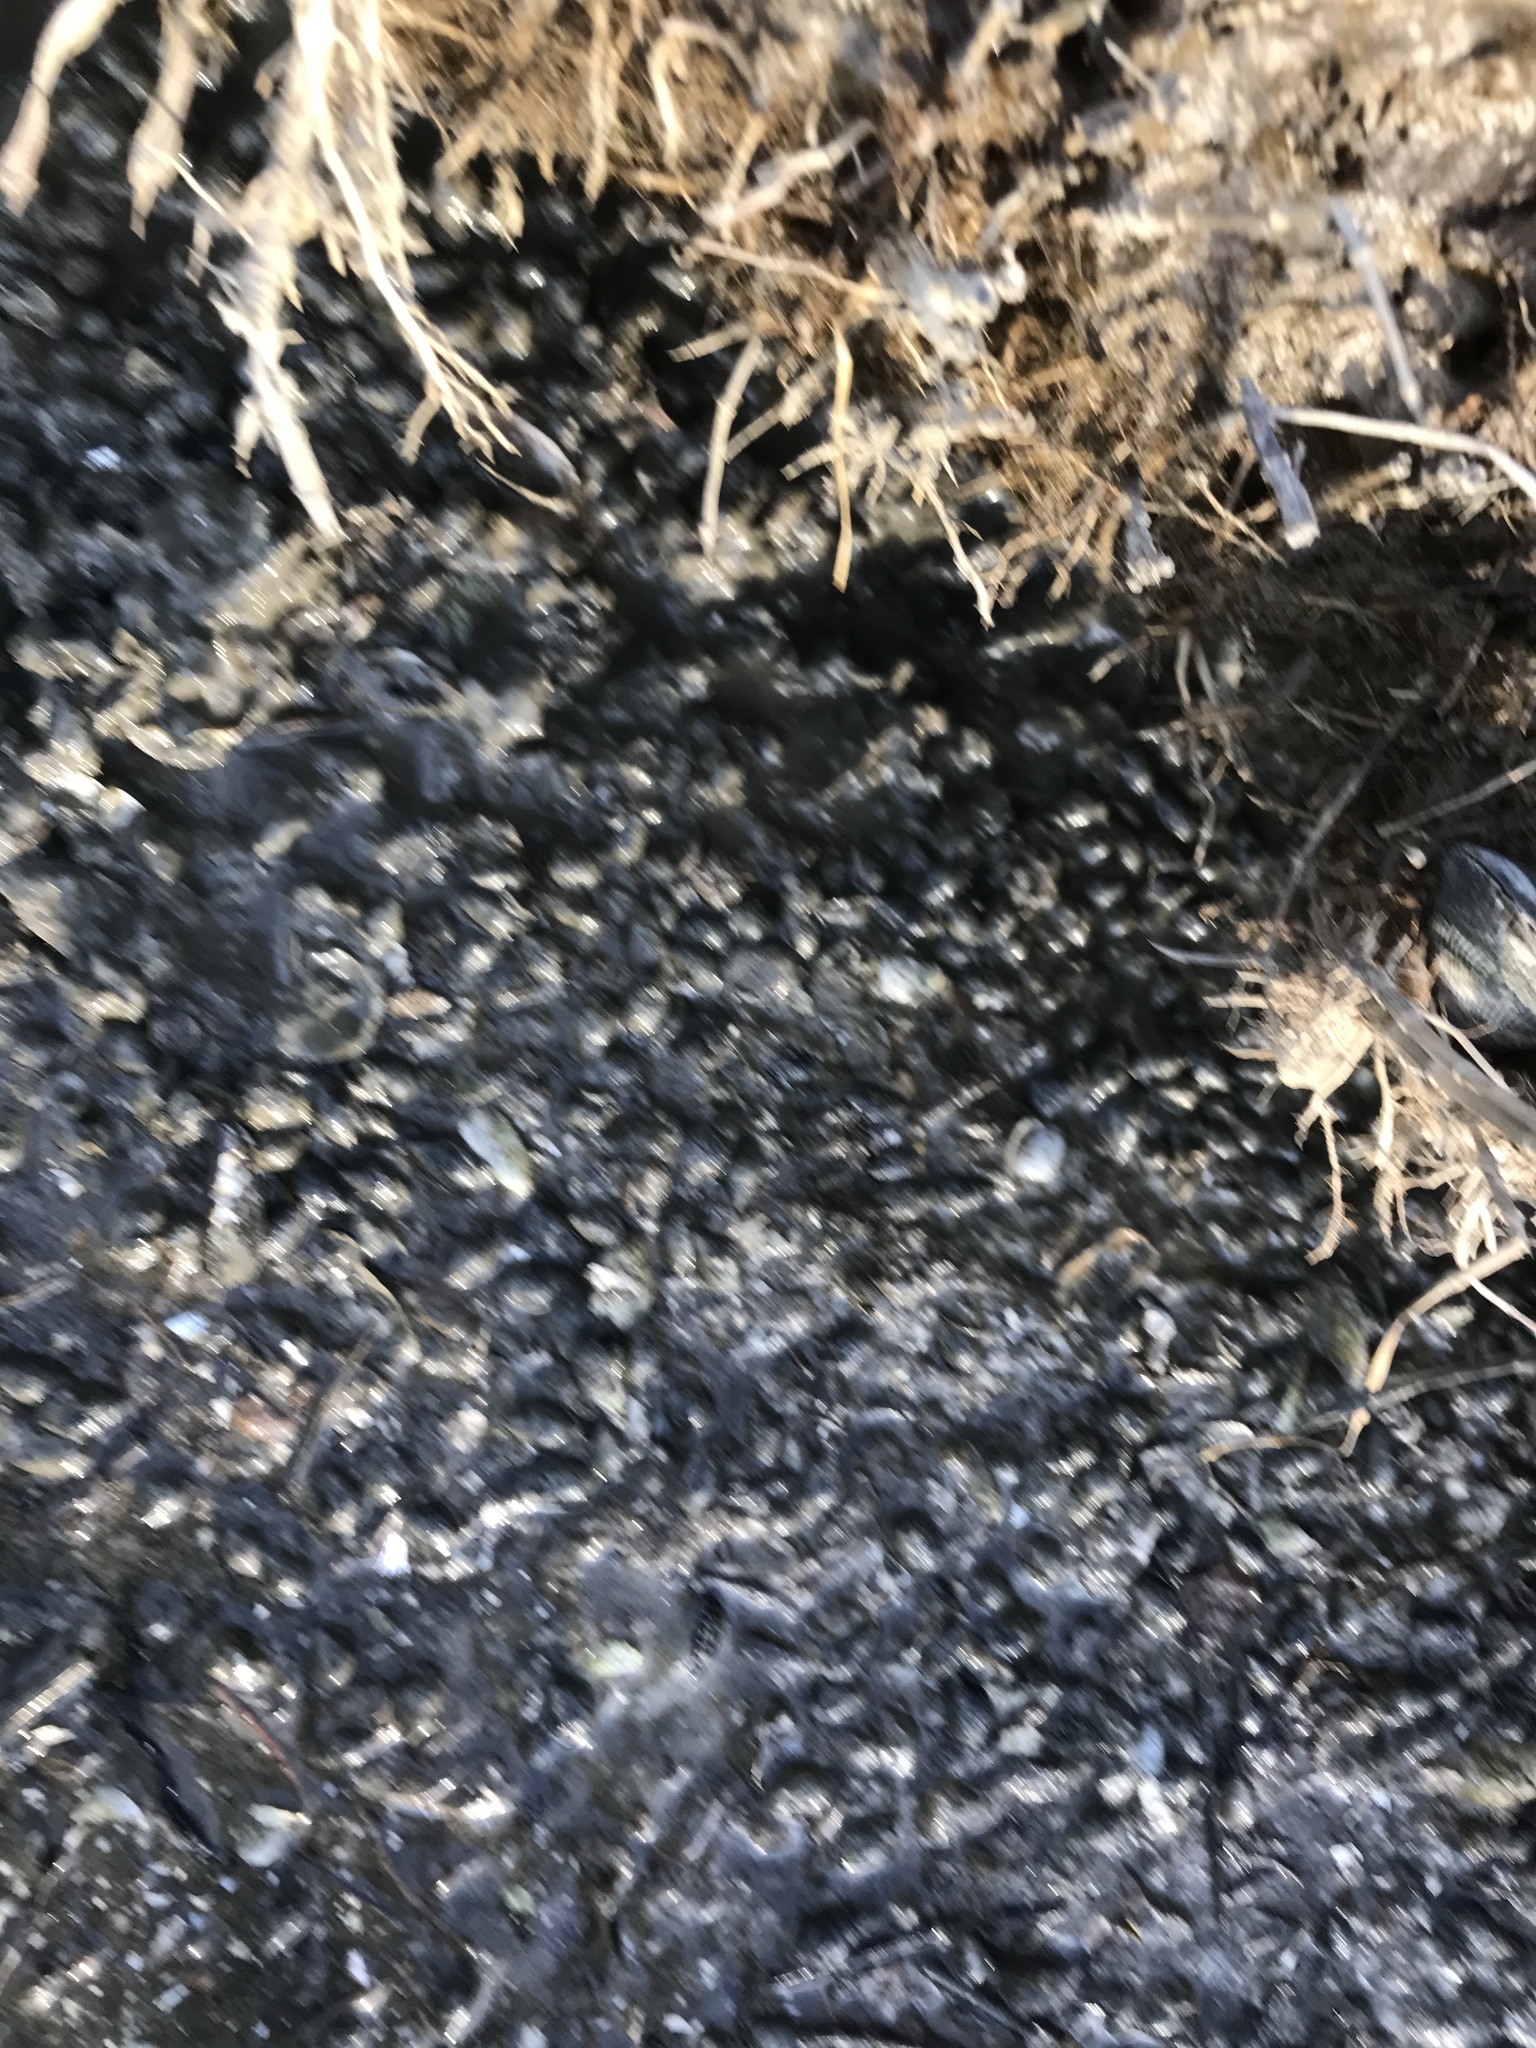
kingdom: Animalia
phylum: Mollusca
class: Gastropoda
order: Neogastropoda
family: Nassariidae
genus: Ilyanassa
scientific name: Ilyanassa obsoleta
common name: Eastern mudsnail
